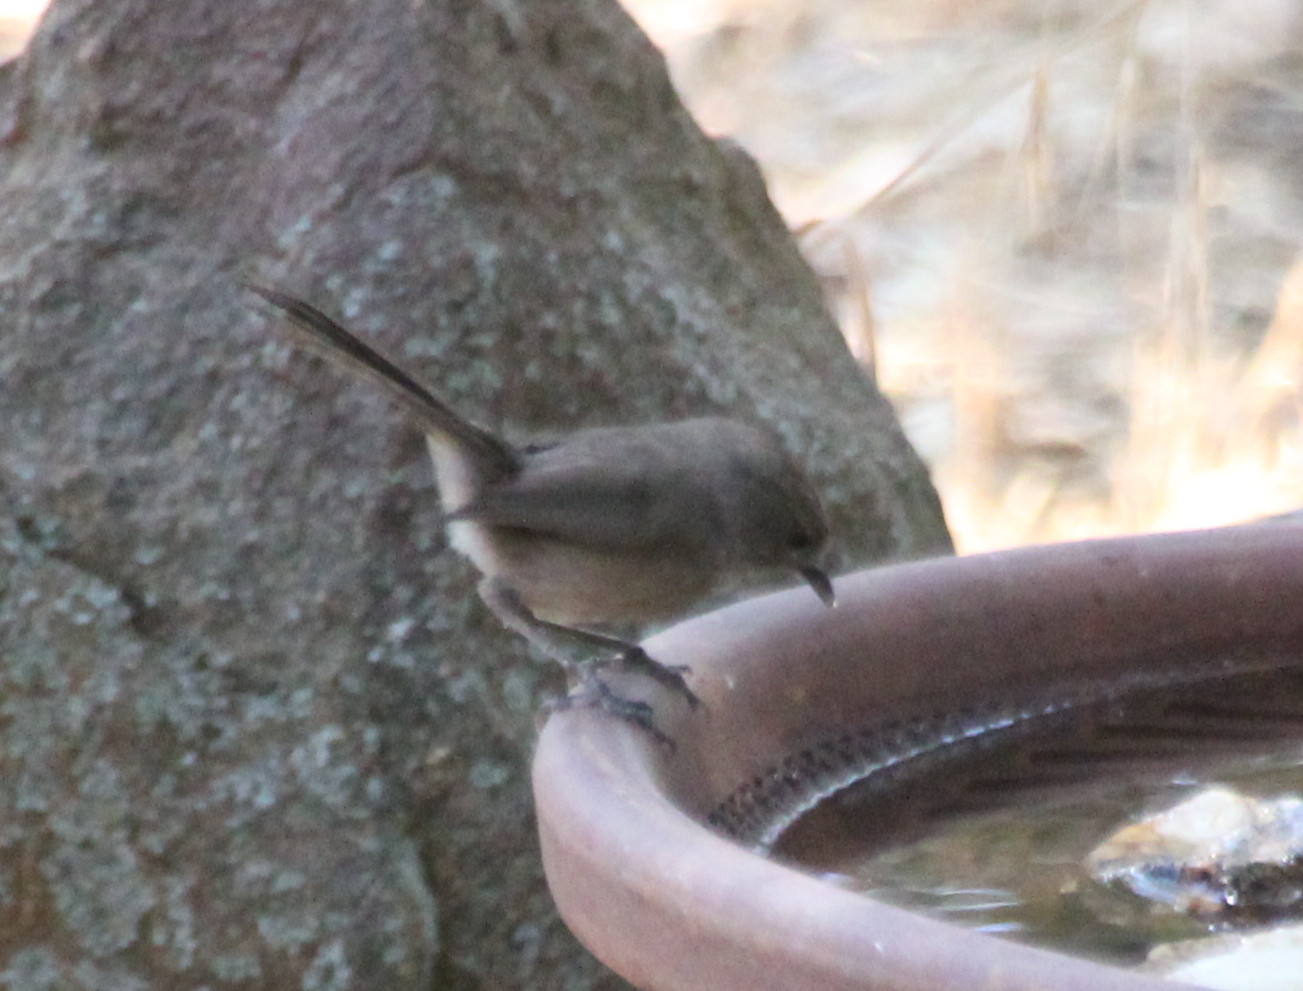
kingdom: Animalia
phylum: Chordata
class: Aves
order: Passeriformes
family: Sylviidae
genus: Chamaea
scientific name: Chamaea fasciata
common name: Wrentit
